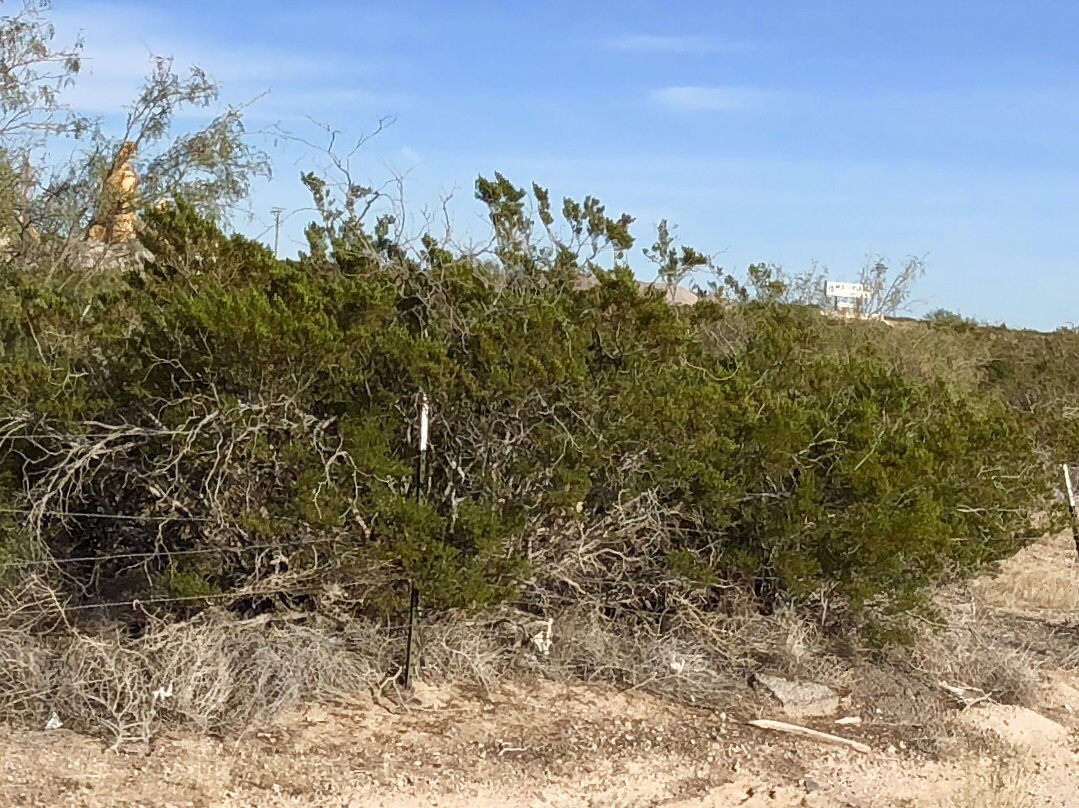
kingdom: Plantae
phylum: Tracheophyta
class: Magnoliopsida
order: Zygophyllales
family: Zygophyllaceae
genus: Larrea
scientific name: Larrea tridentata
